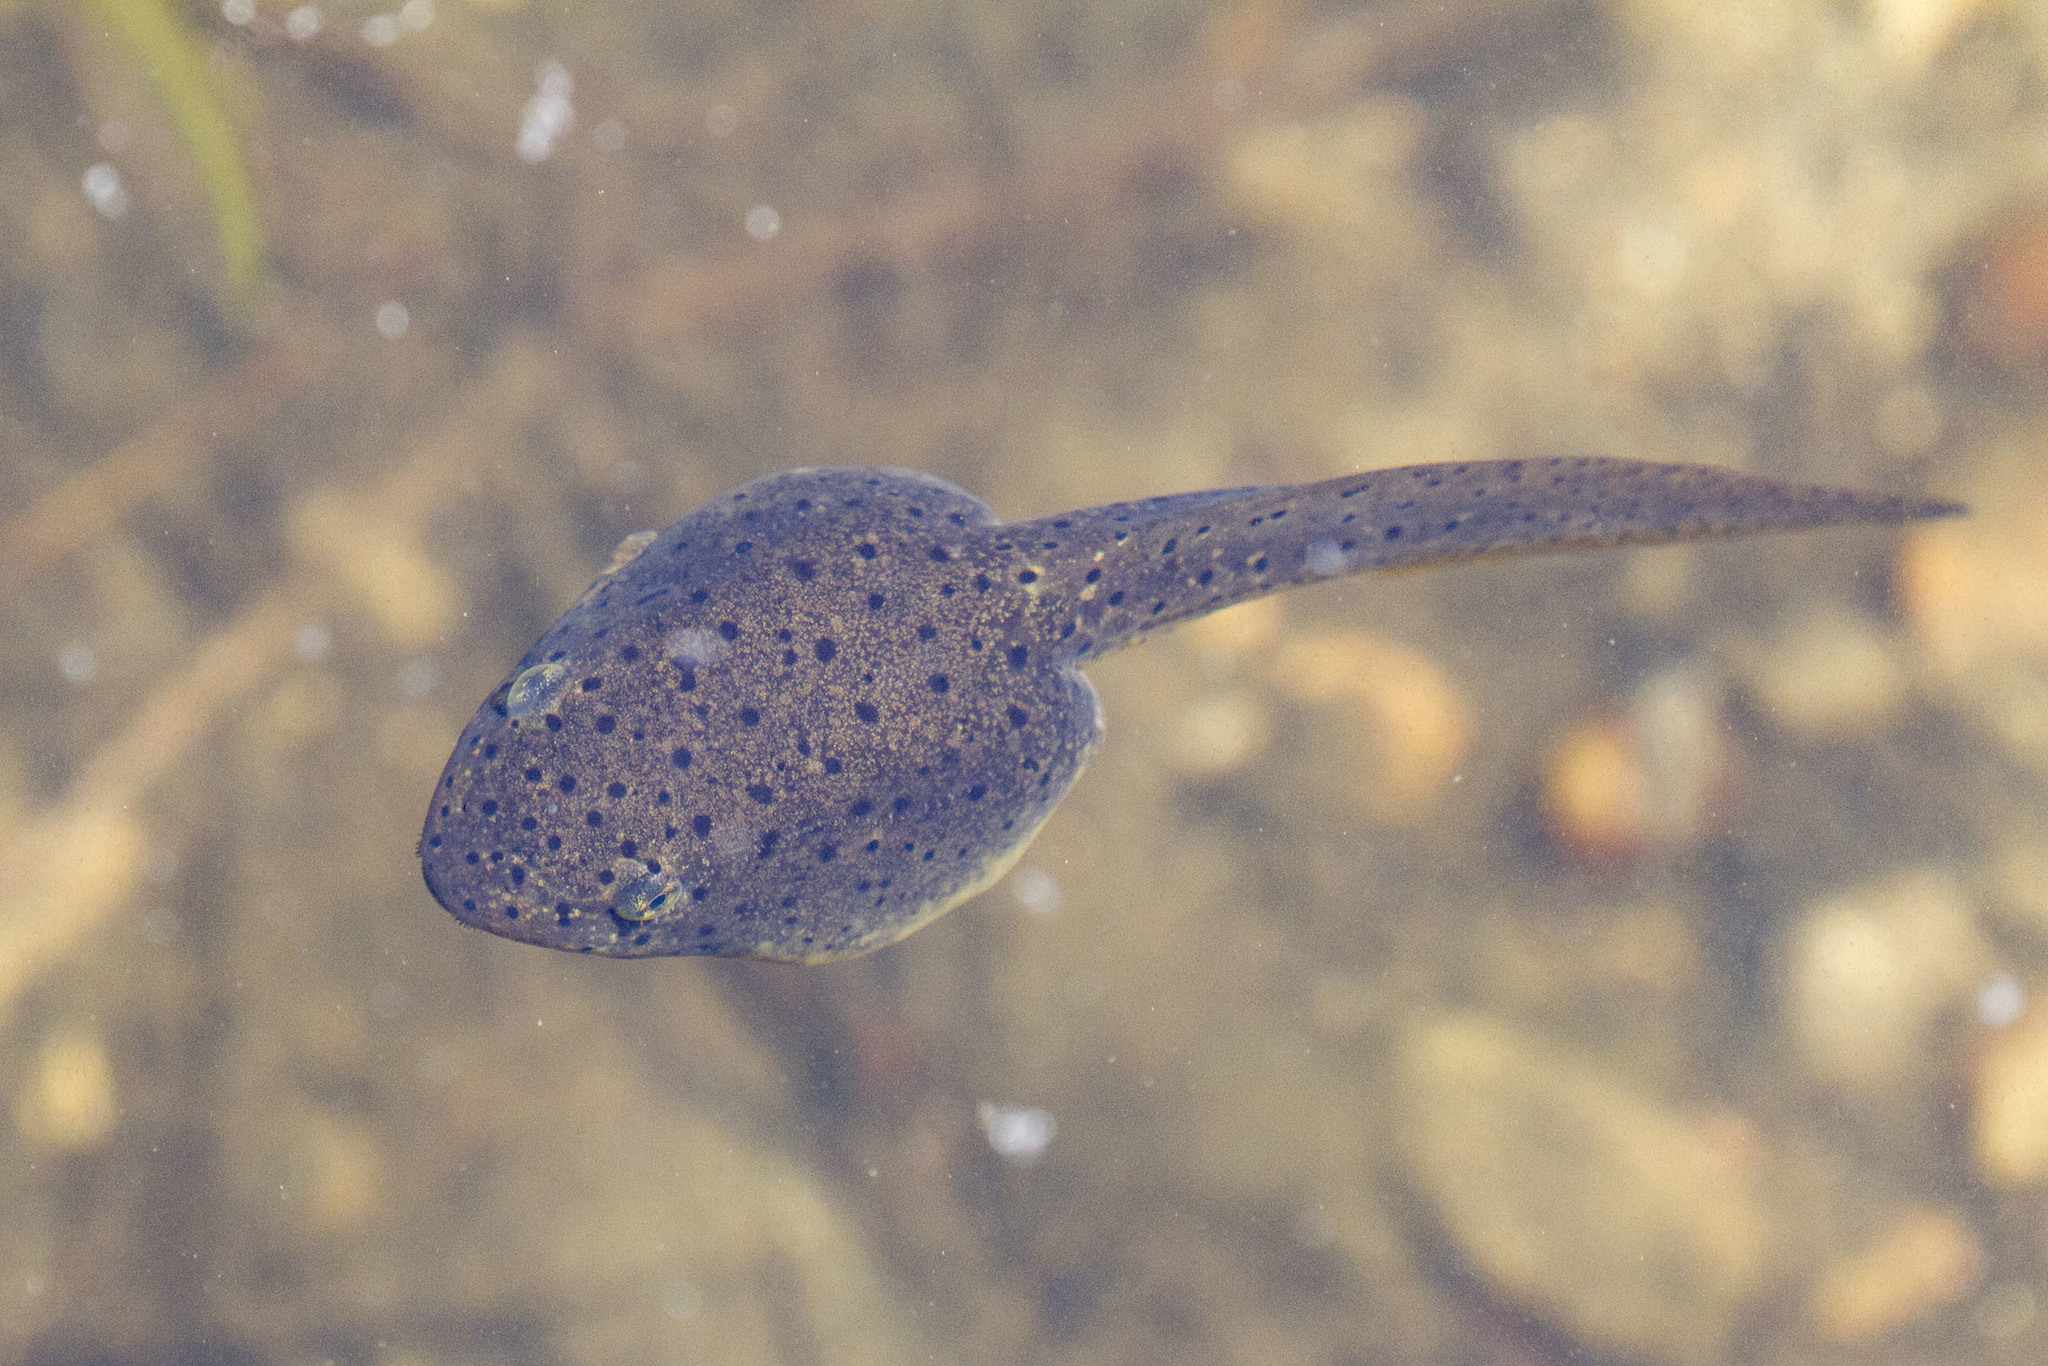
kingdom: Animalia
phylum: Chordata
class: Amphibia
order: Anura
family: Ranidae
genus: Lithobates
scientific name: Lithobates catesbeianus
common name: American bullfrog
